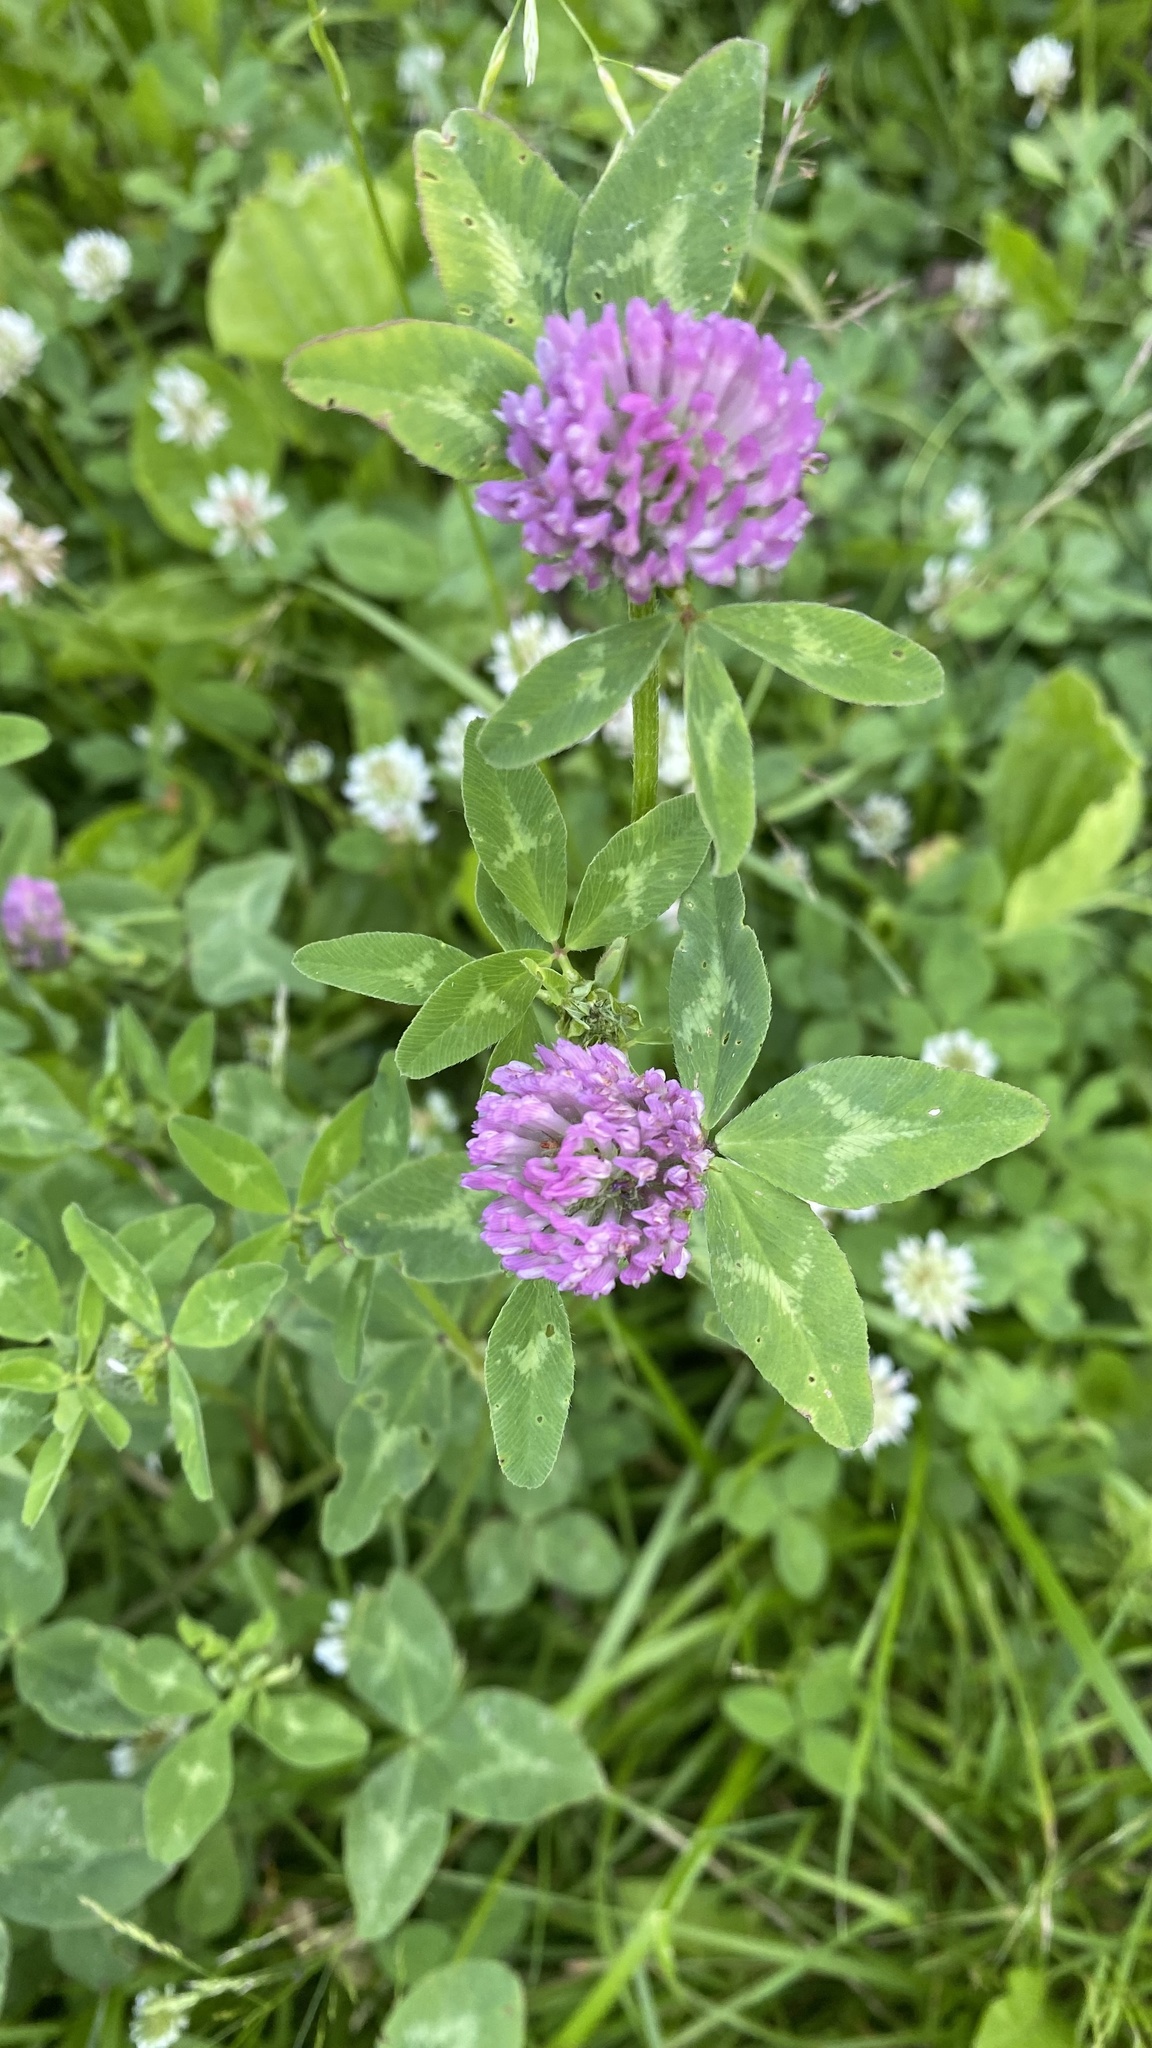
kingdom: Plantae
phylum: Tracheophyta
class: Magnoliopsida
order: Fabales
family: Fabaceae
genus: Trifolium
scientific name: Trifolium pratense
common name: Red clover
